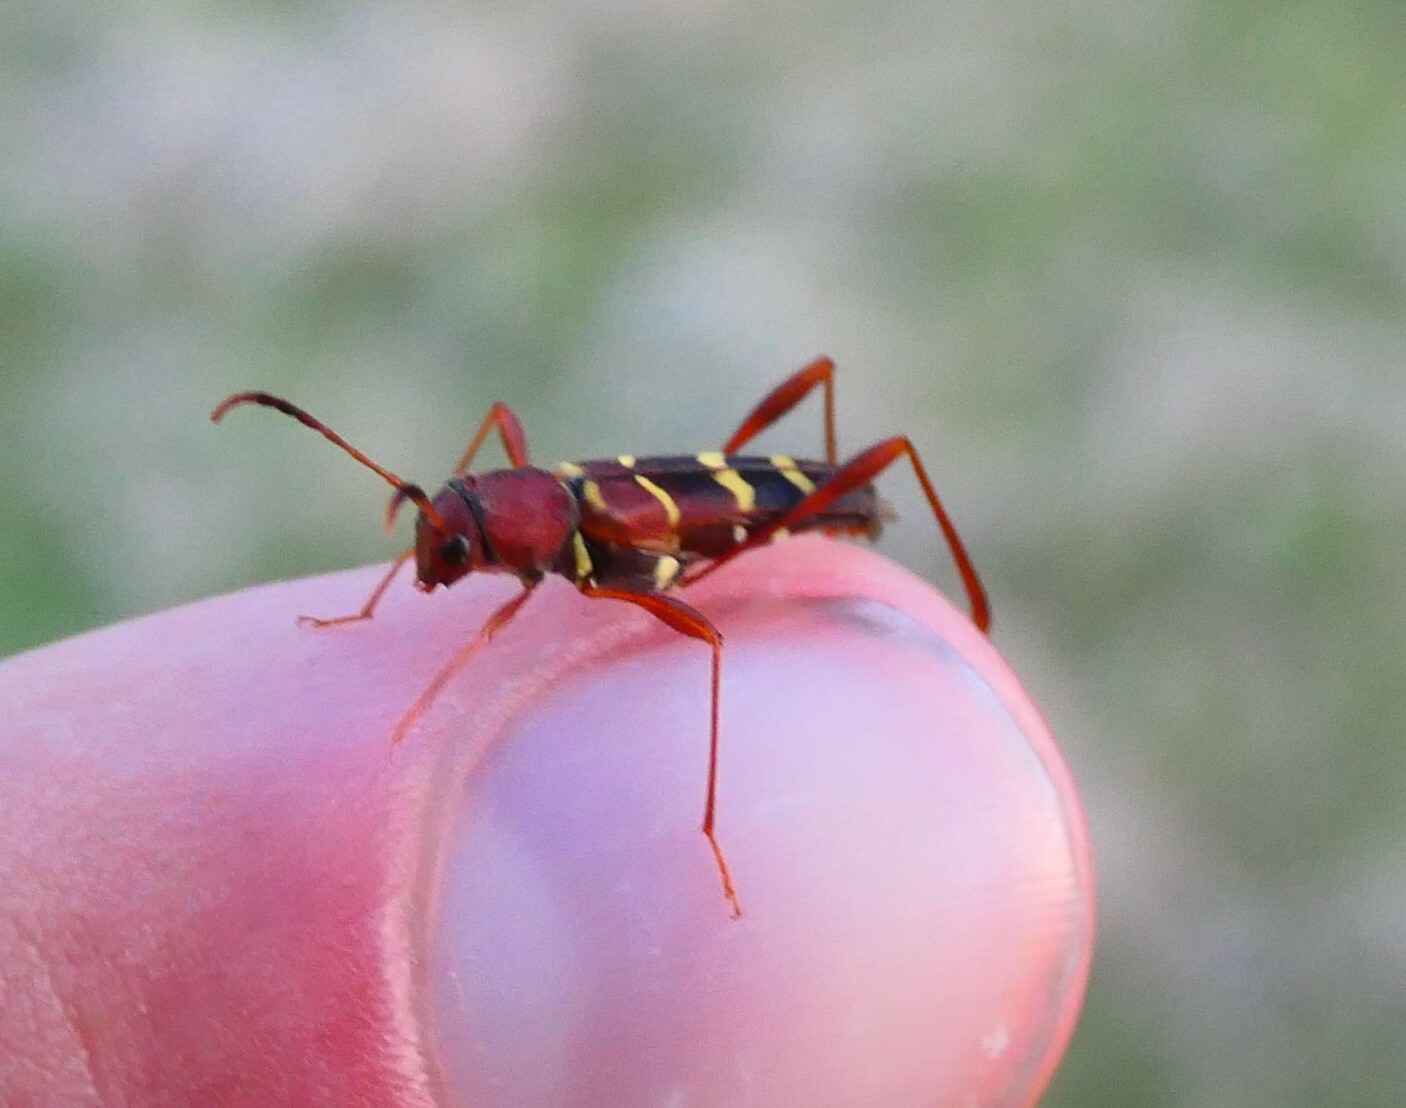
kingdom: Animalia
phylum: Arthropoda
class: Insecta
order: Coleoptera
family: Cerambycidae
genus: Neoclytus
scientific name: Neoclytus acuminatus
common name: Read-headed ash borer
